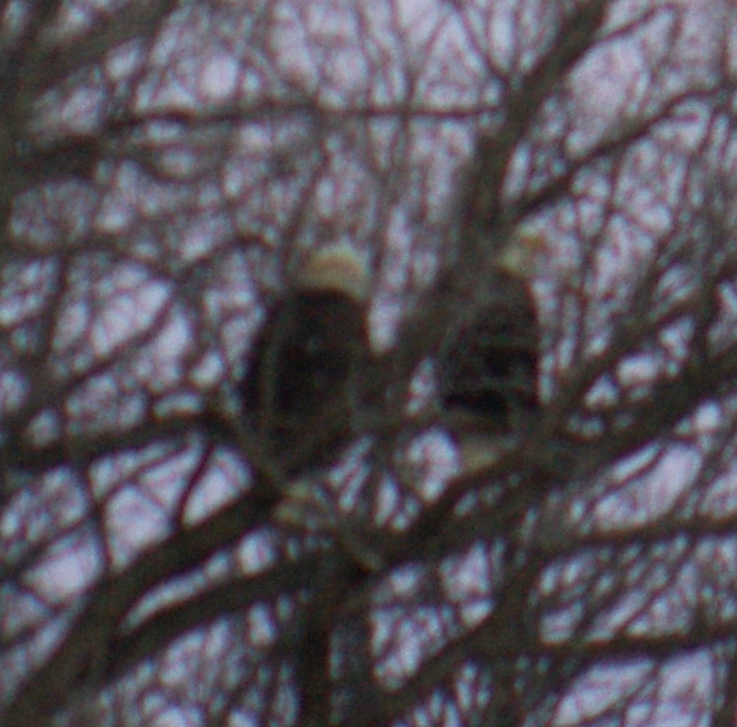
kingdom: Animalia
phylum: Chordata
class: Aves
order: Accipitriformes
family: Accipitridae
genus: Haliaeetus
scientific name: Haliaeetus leucocephalus
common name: Bald eagle
